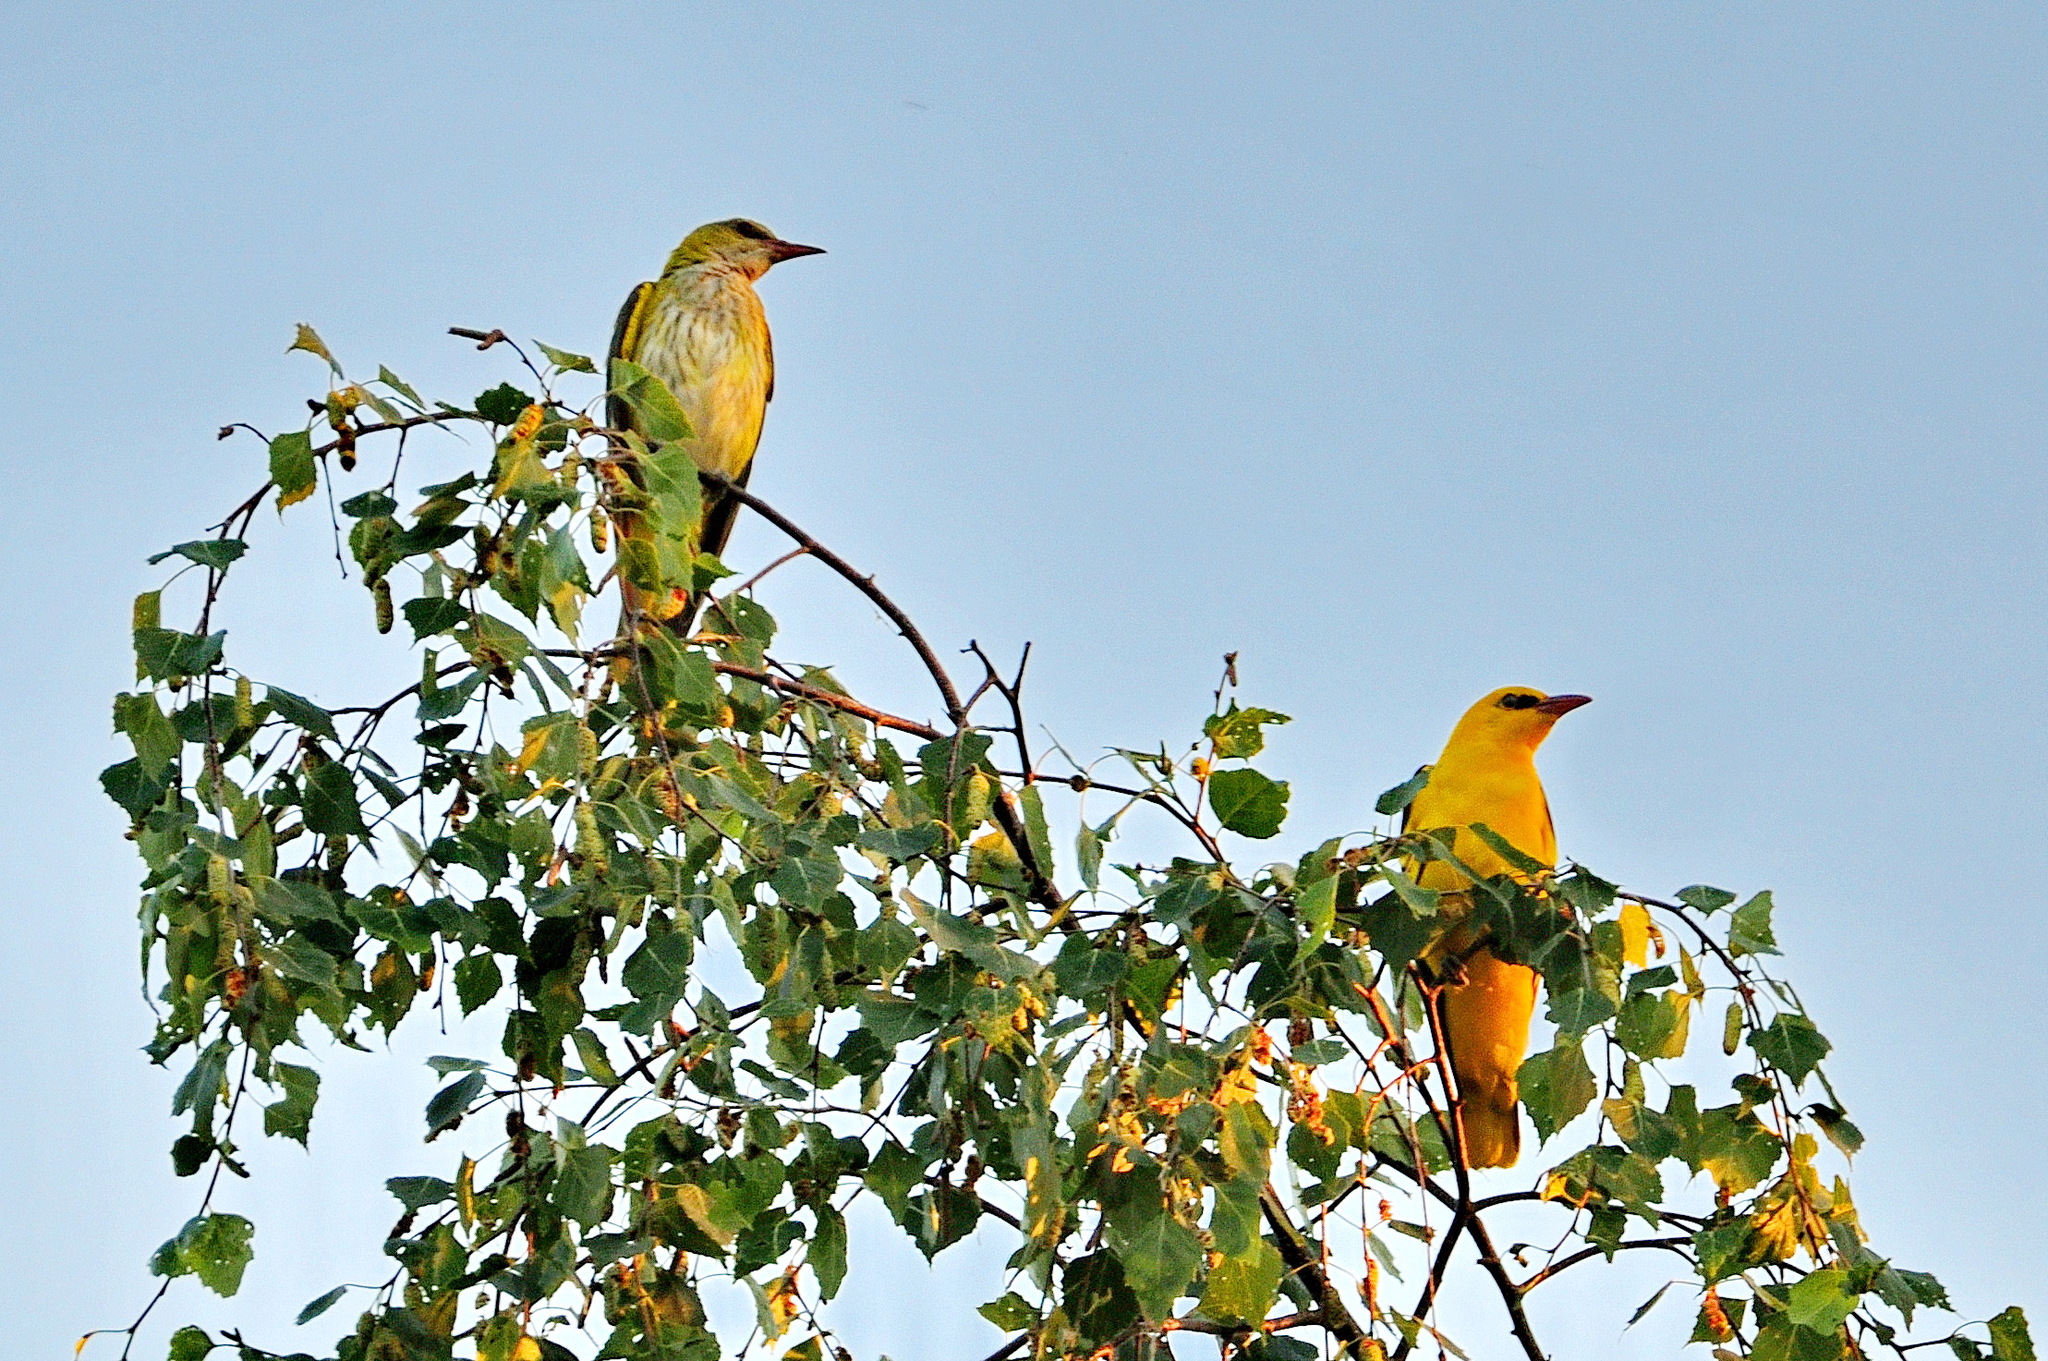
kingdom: Animalia
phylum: Chordata
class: Aves
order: Passeriformes
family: Oriolidae
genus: Oriolus
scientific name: Oriolus oriolus
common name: Eurasian golden oriole
